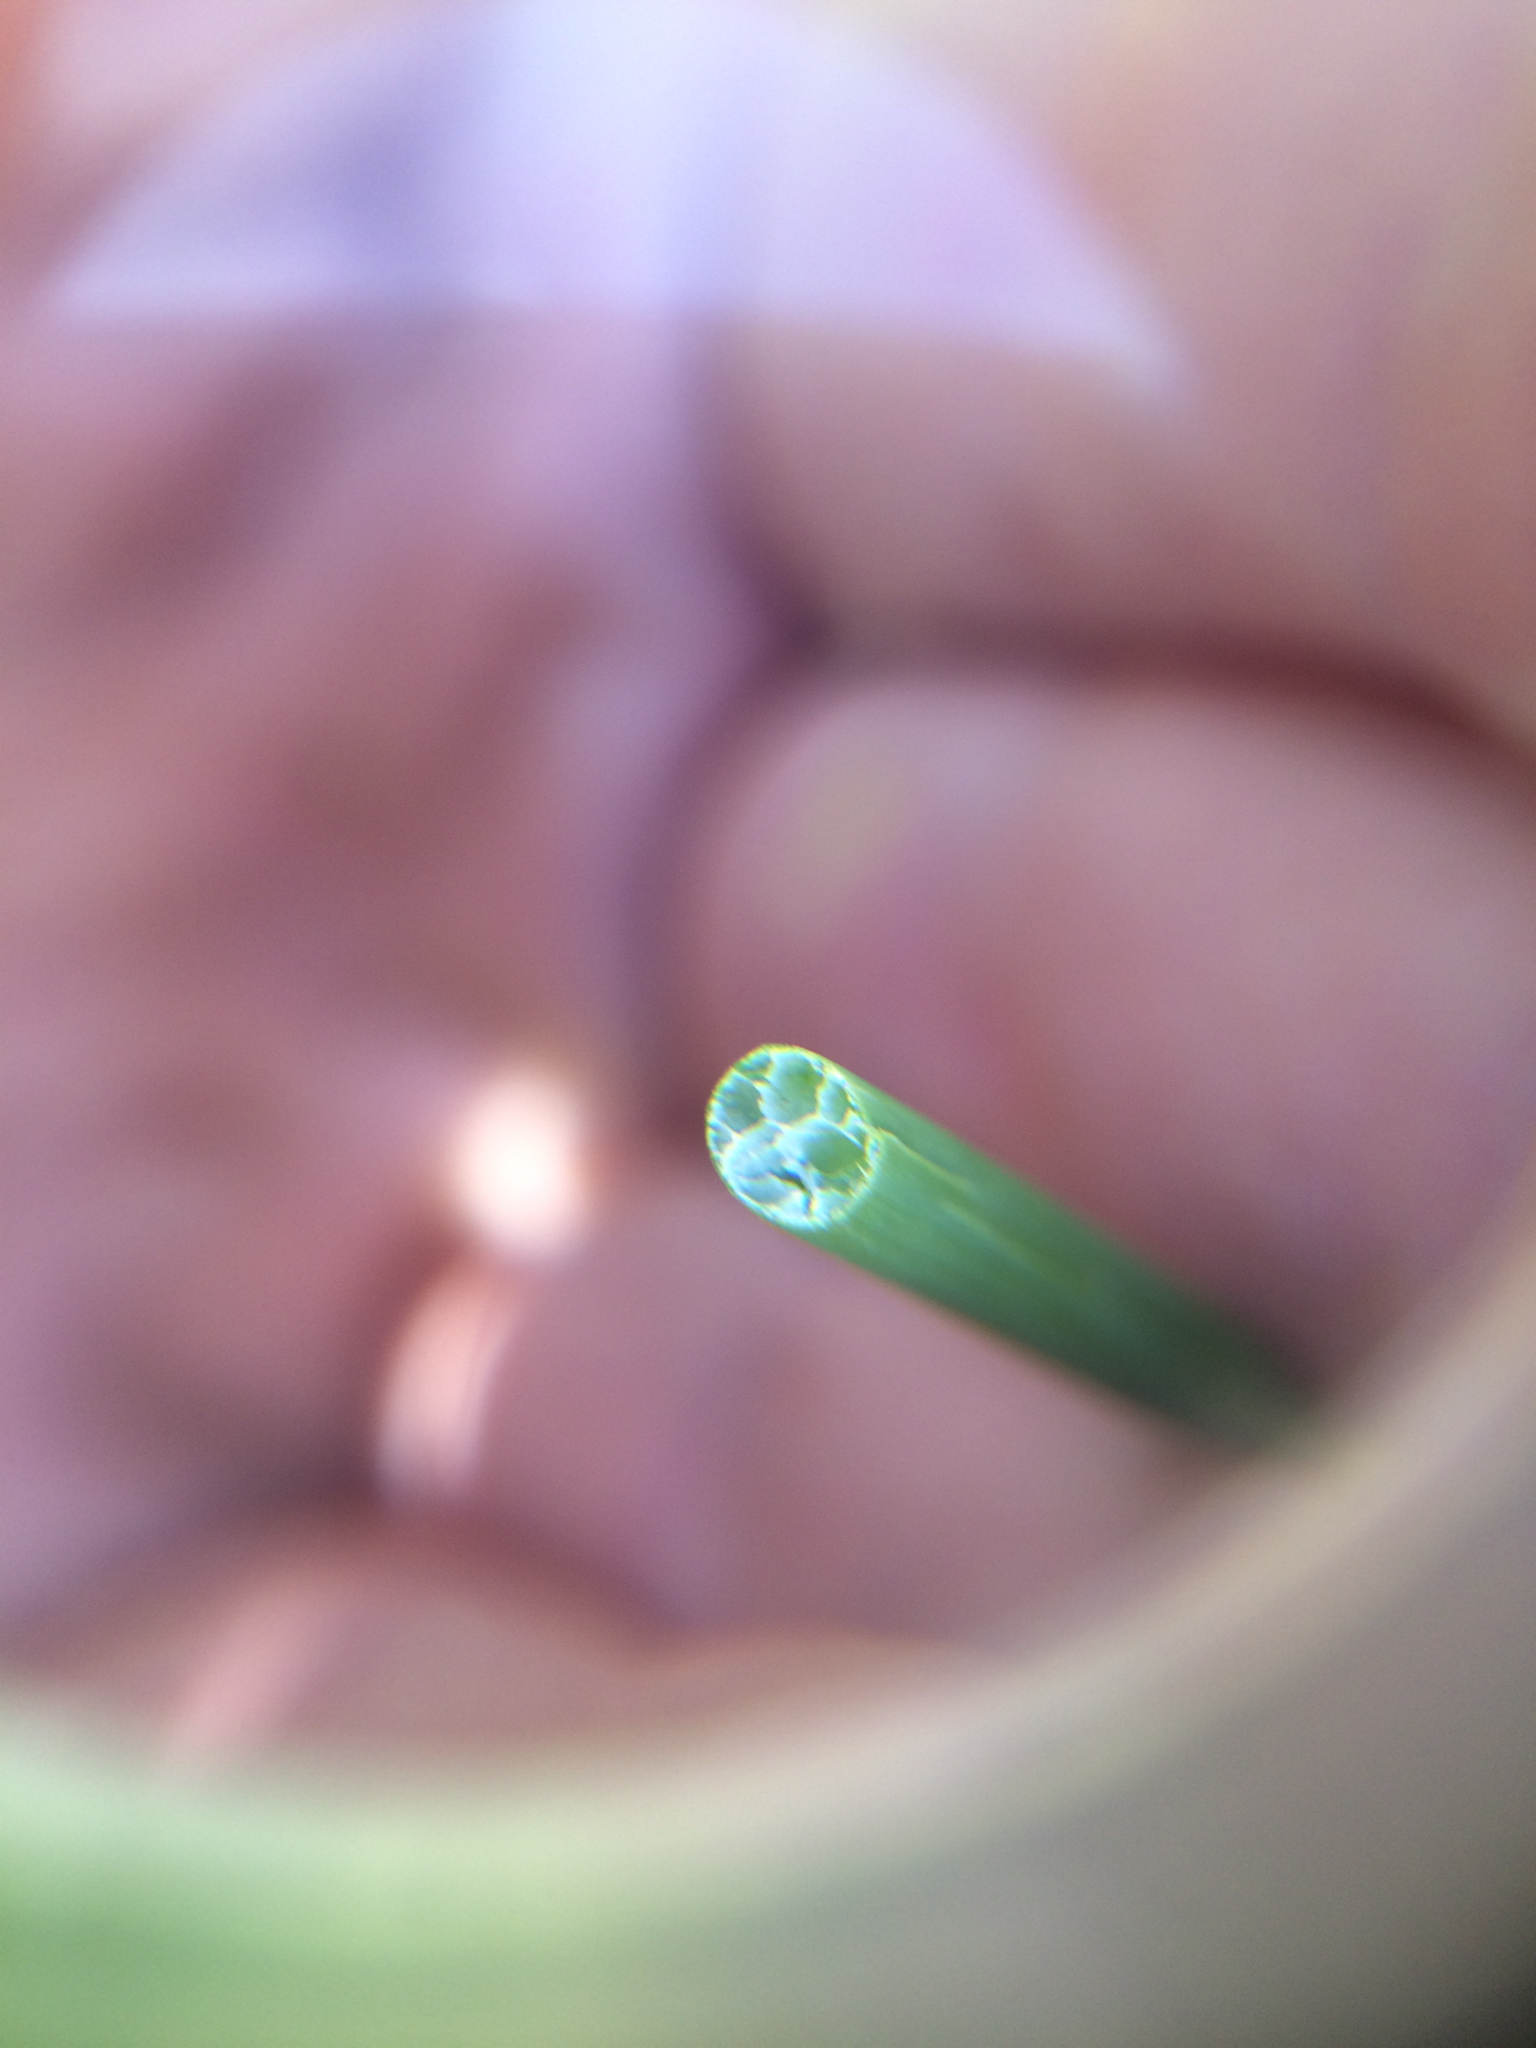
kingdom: Plantae
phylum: Tracheophyta
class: Liliopsida
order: Poales
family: Cyperaceae
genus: Schoenoplectus
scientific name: Schoenoplectus tabernaemontani
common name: Grey club-rush
